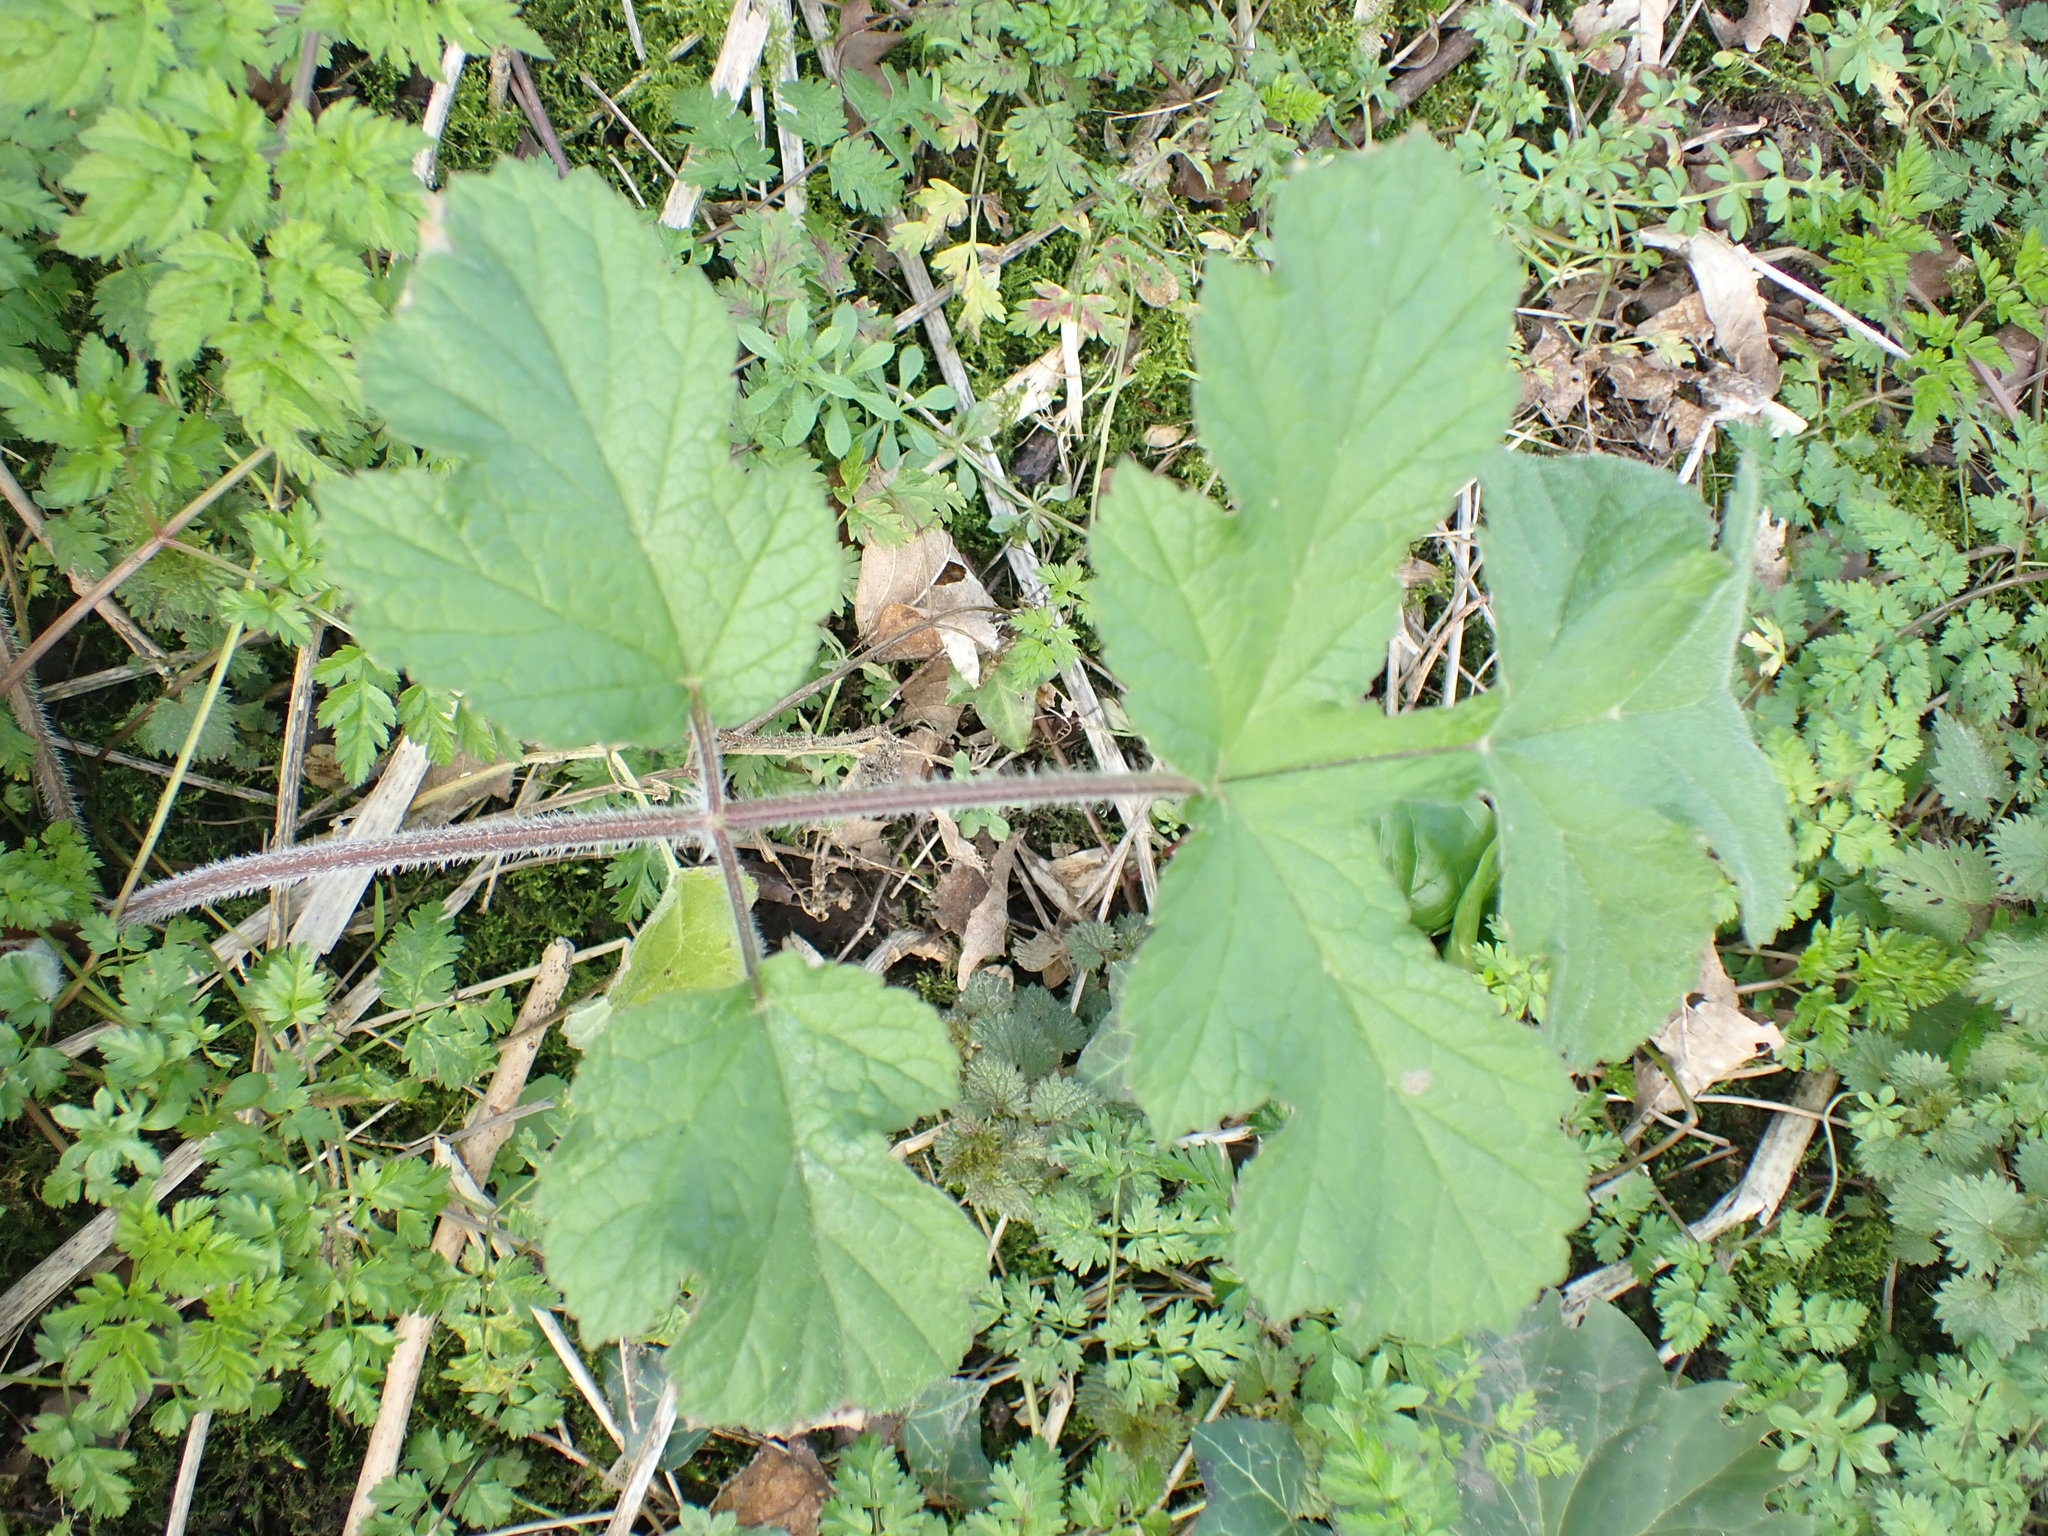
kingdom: Plantae
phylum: Tracheophyta
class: Magnoliopsida
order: Apiales
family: Apiaceae
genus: Heracleum
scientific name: Heracleum sphondylium
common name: Hogweed
